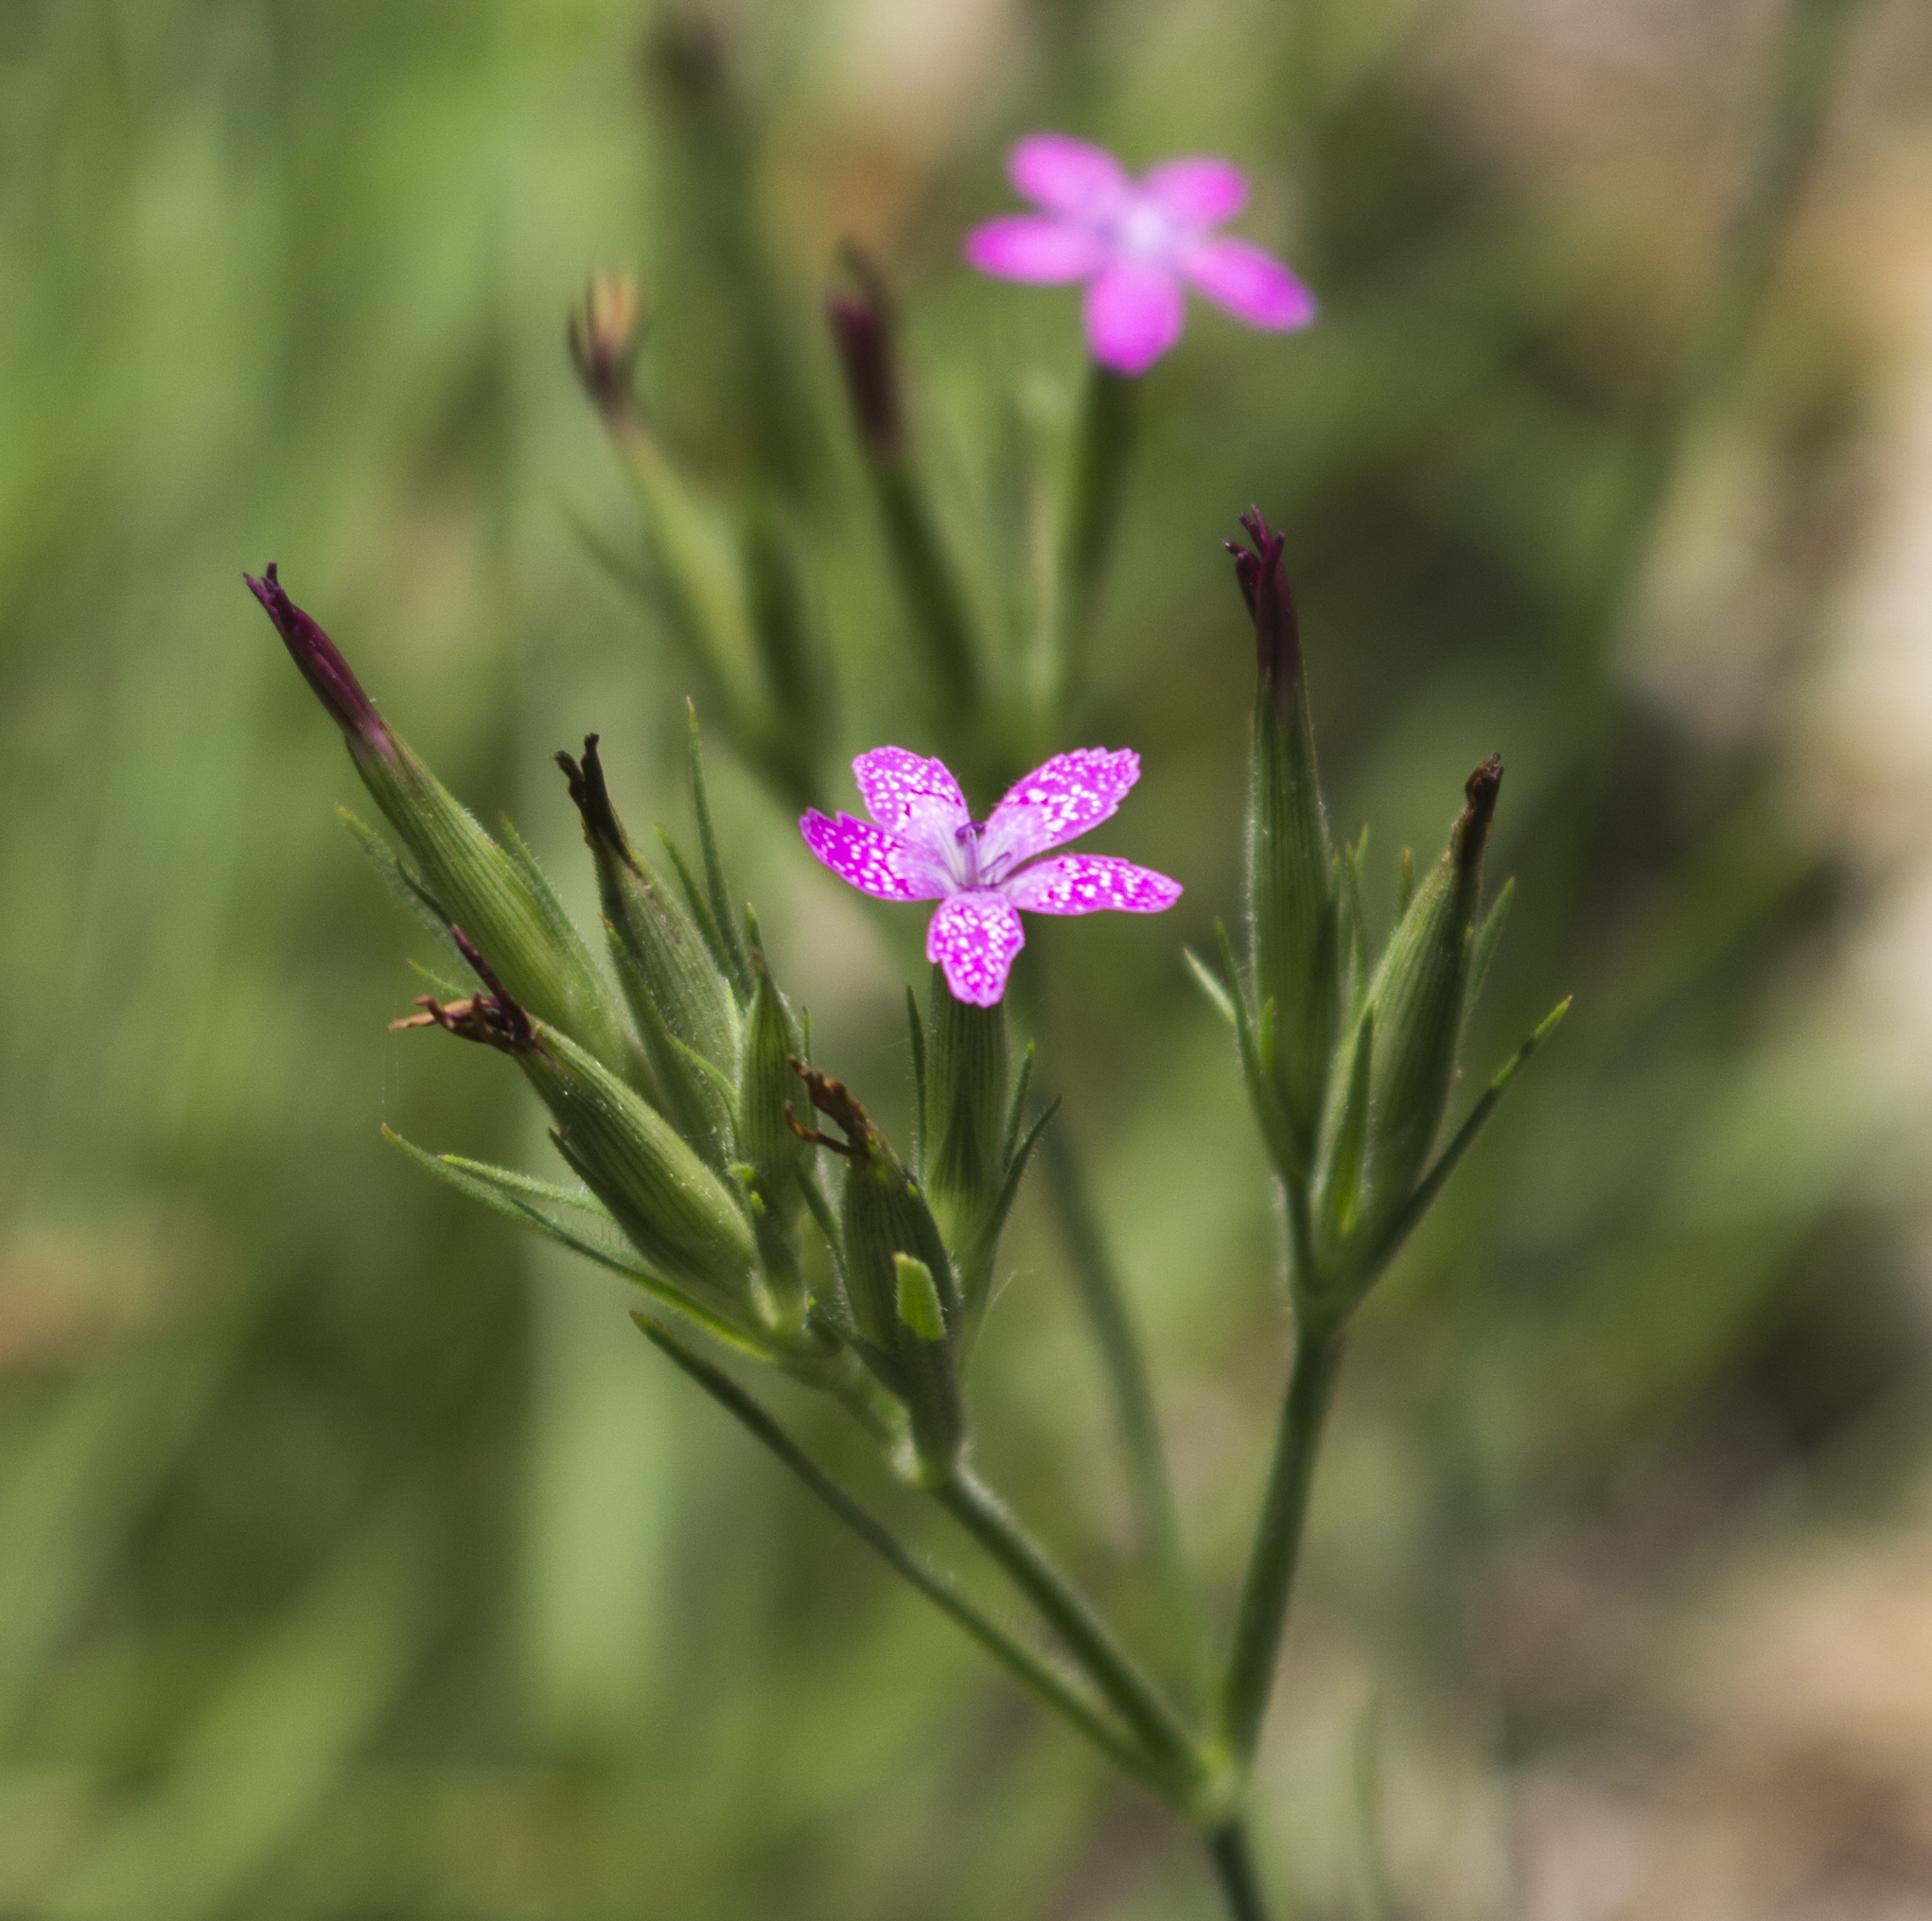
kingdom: Plantae
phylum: Tracheophyta
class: Magnoliopsida
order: Caryophyllales
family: Caryophyllaceae
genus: Dianthus
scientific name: Dianthus armeria
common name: Deptford pink
